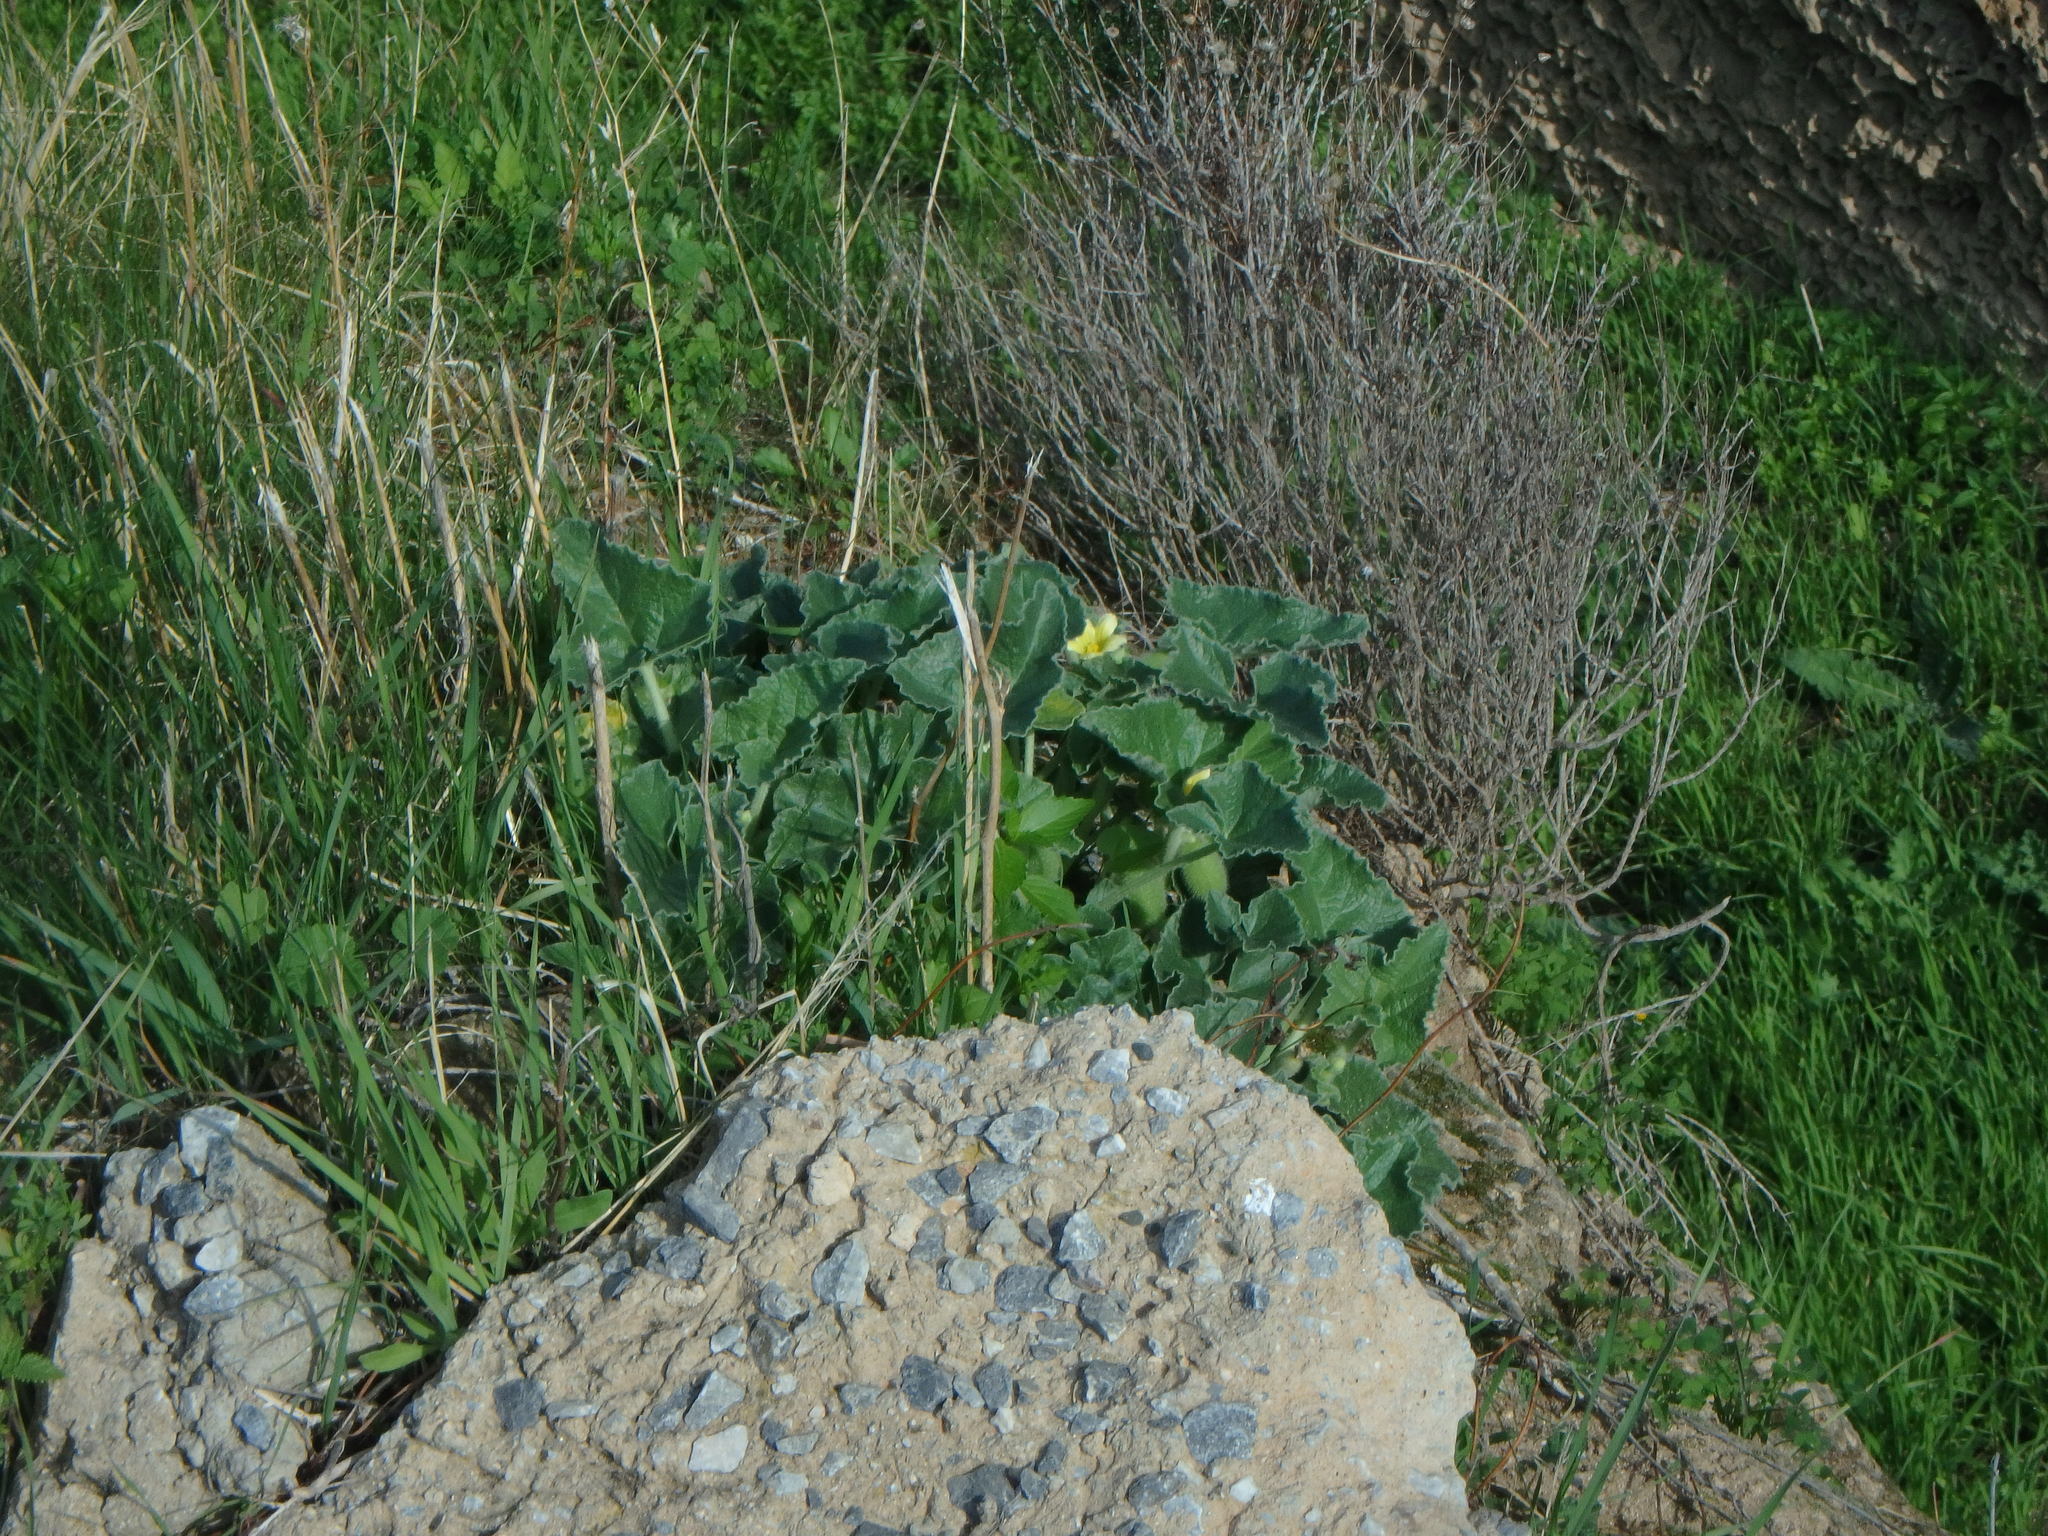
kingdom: Plantae
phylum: Tracheophyta
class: Magnoliopsida
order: Cucurbitales
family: Cucurbitaceae
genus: Ecballium
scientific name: Ecballium elaterium
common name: Squirting cucumber
